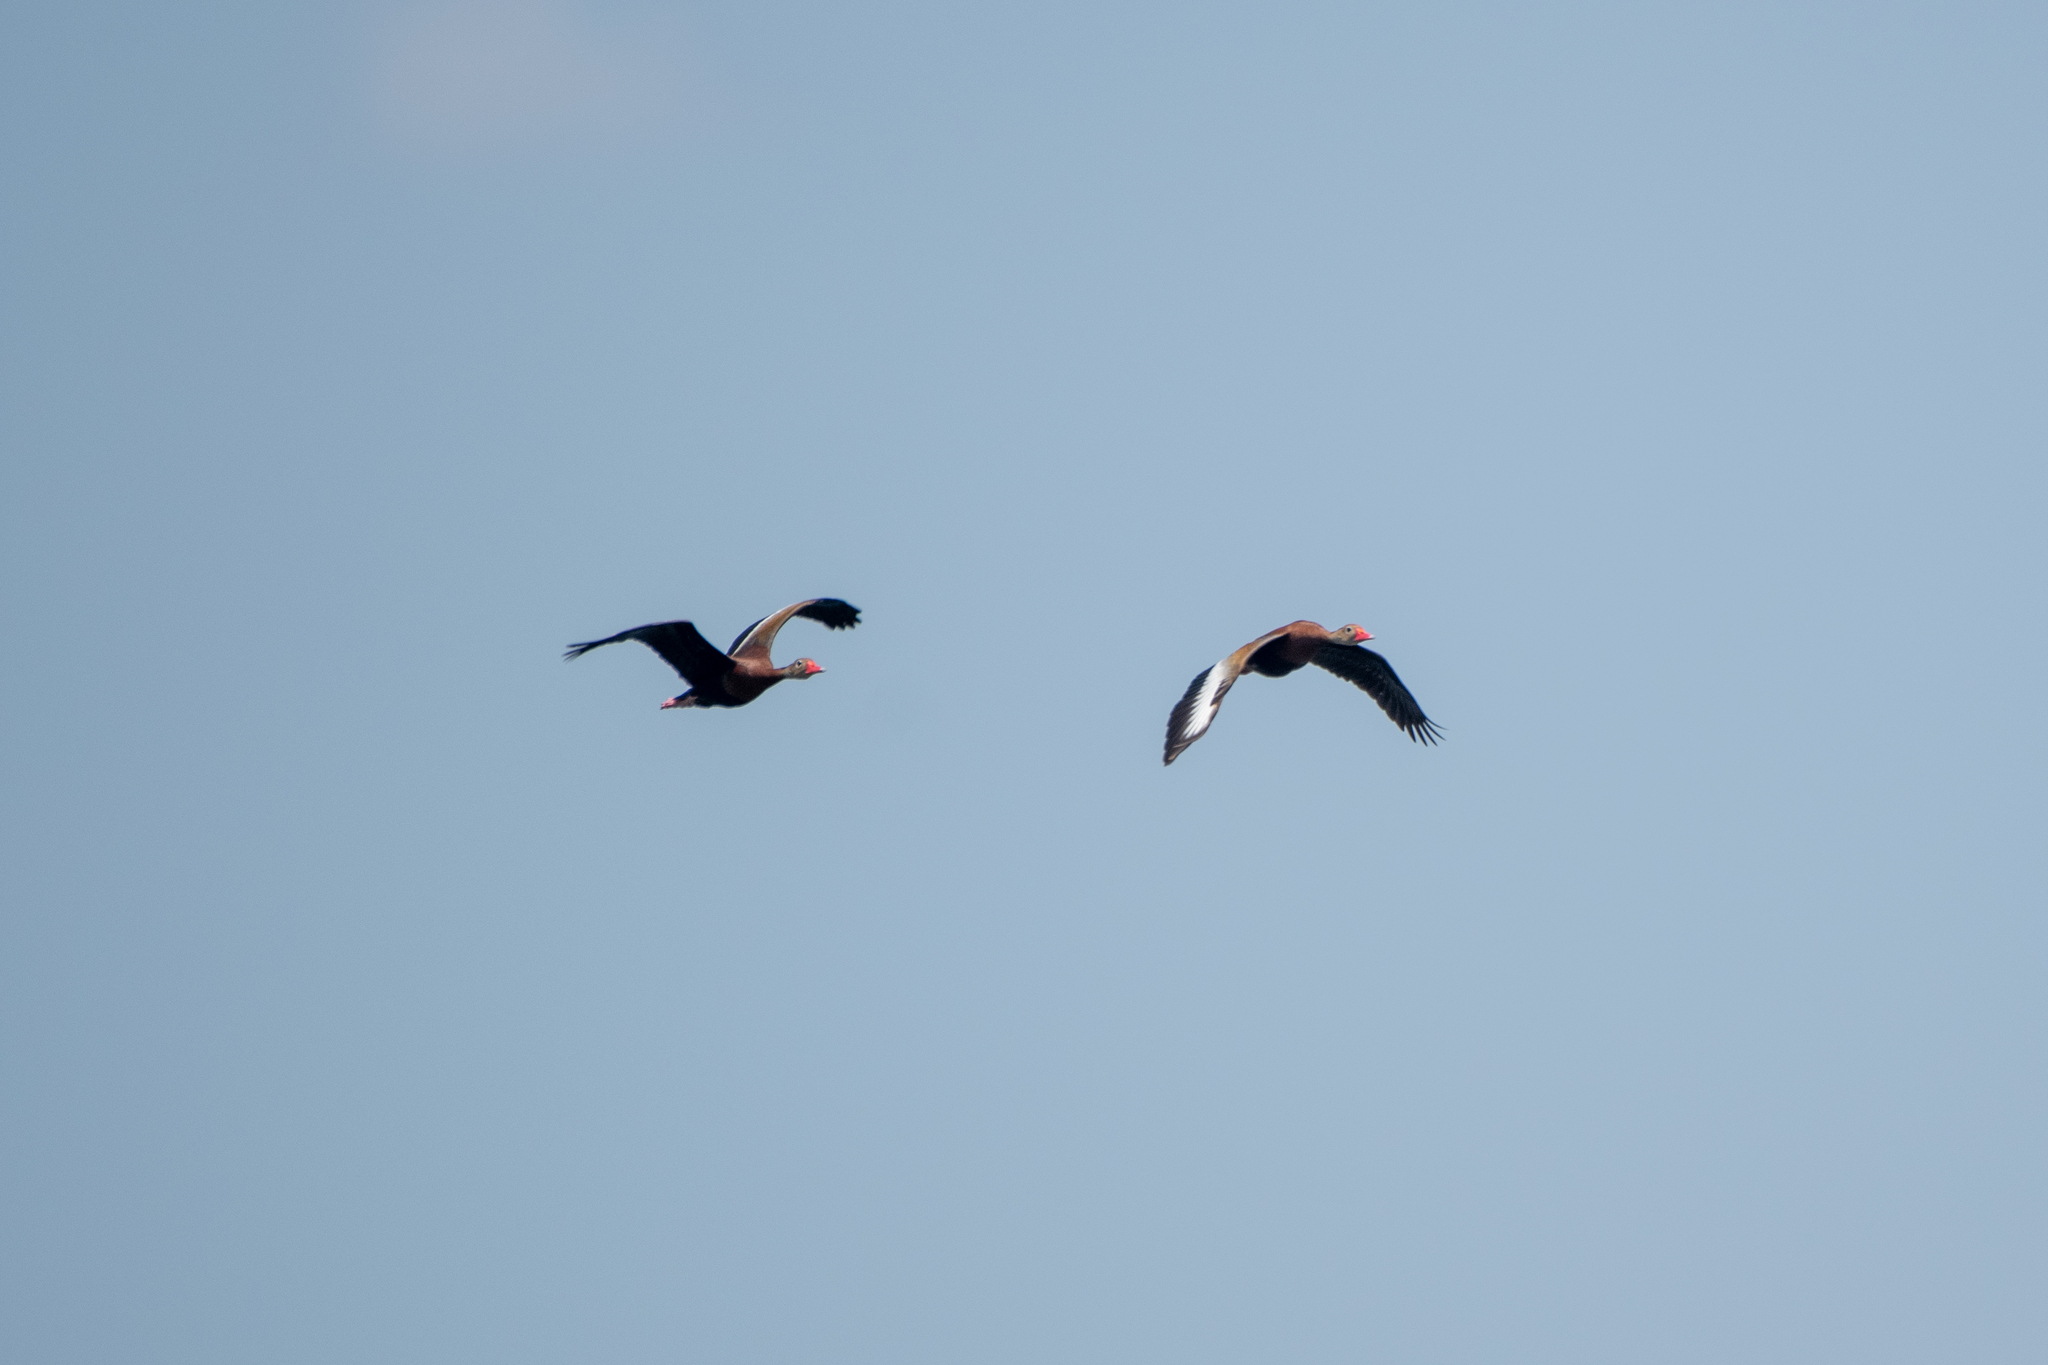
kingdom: Animalia
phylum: Chordata
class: Aves
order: Anseriformes
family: Anatidae
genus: Dendrocygna
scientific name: Dendrocygna autumnalis
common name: Black-bellied whistling duck
